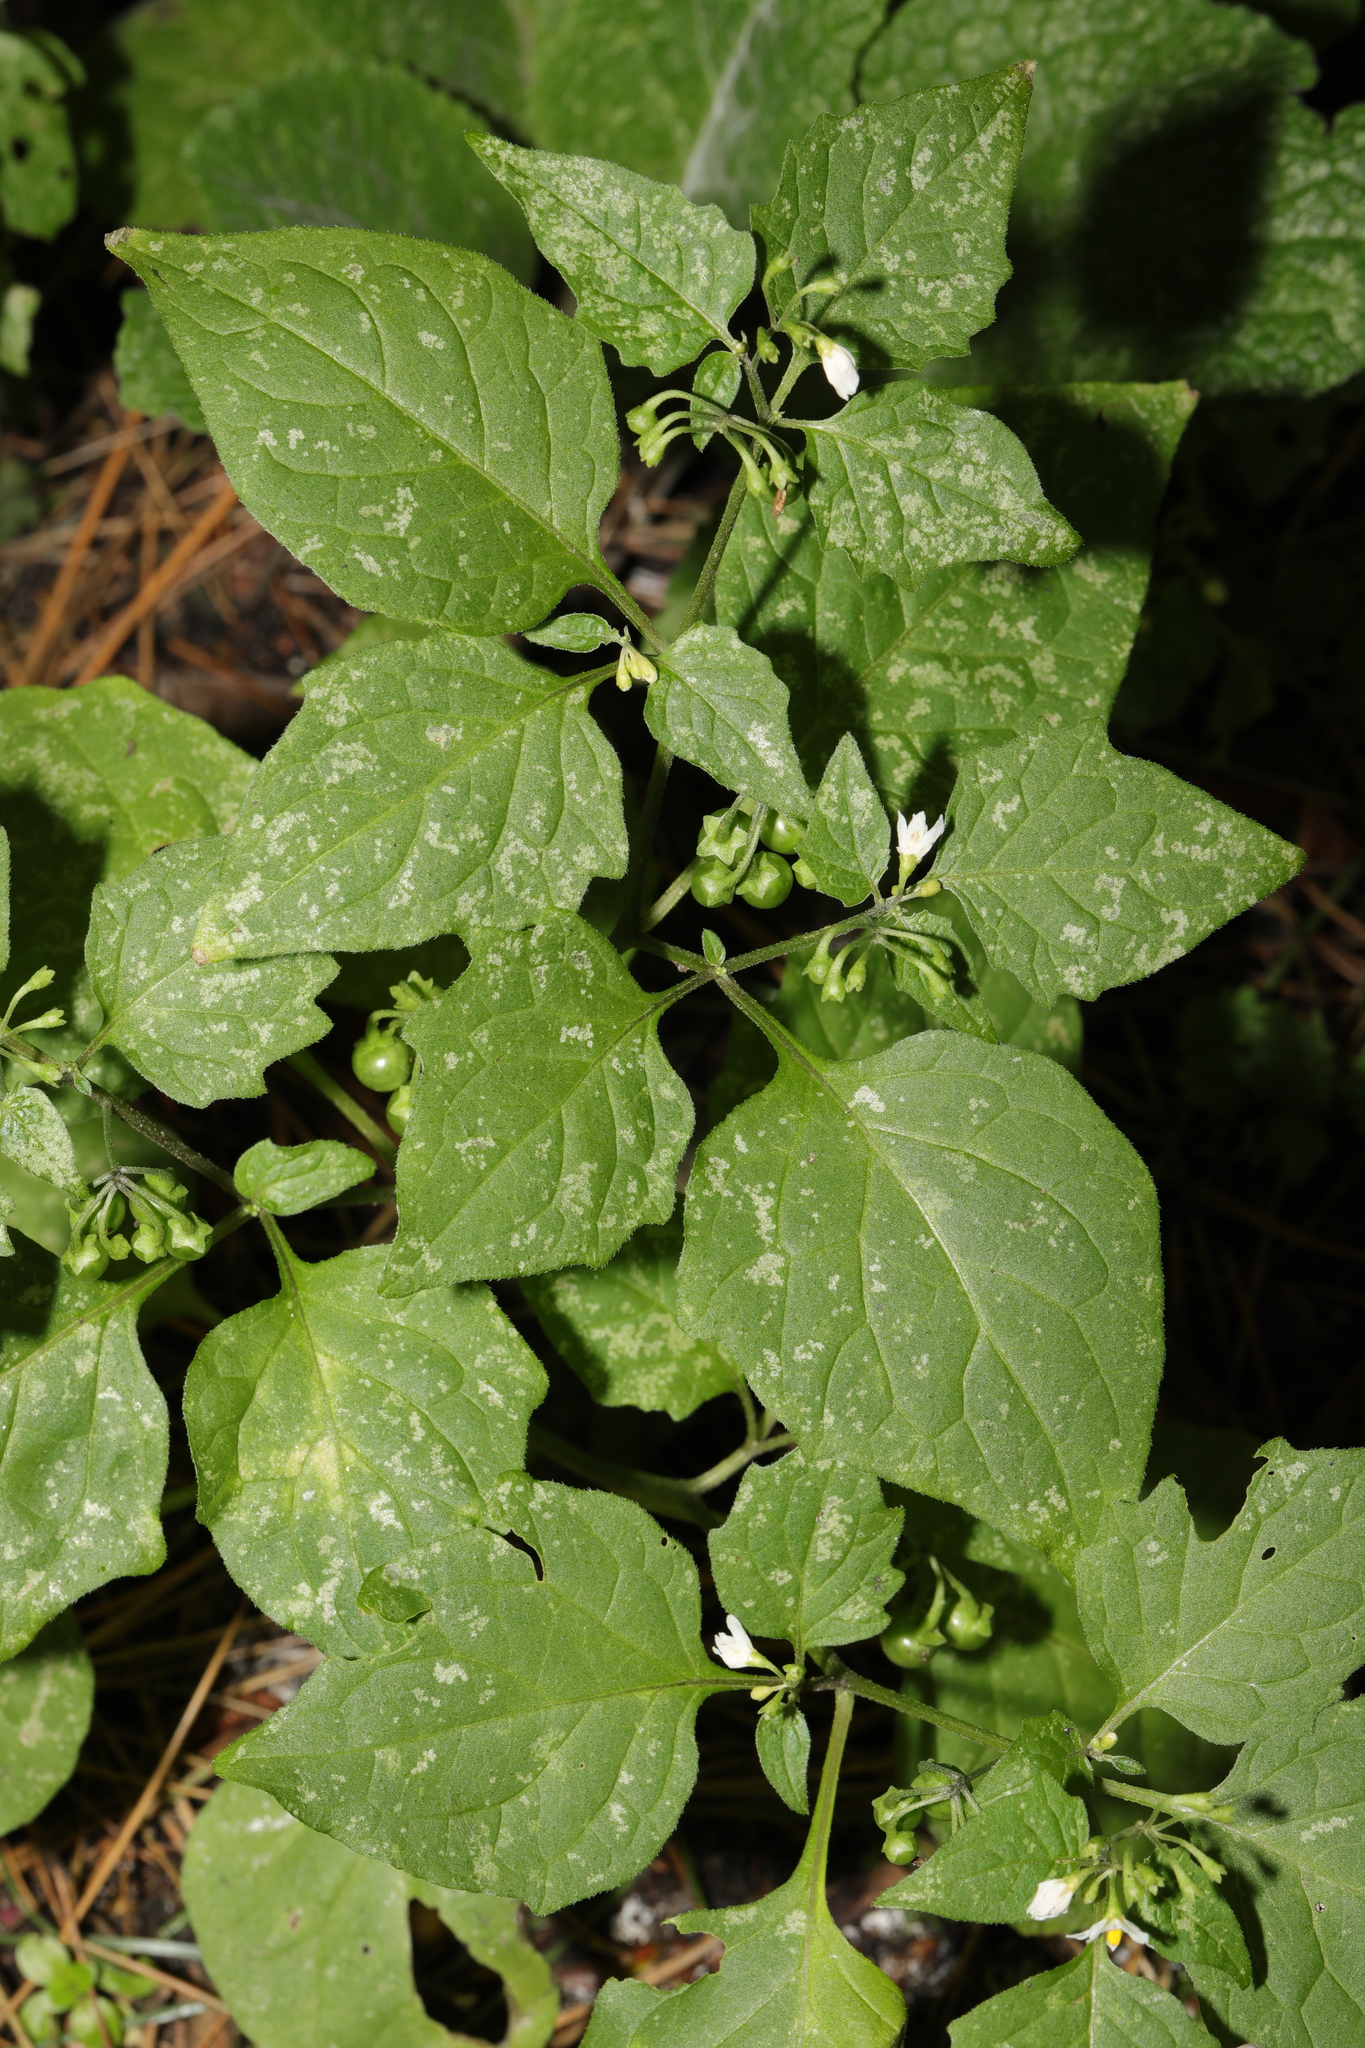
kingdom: Plantae
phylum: Tracheophyta
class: Magnoliopsida
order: Solanales
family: Solanaceae
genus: Solanum
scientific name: Solanum nigrum
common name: Black nightshade
